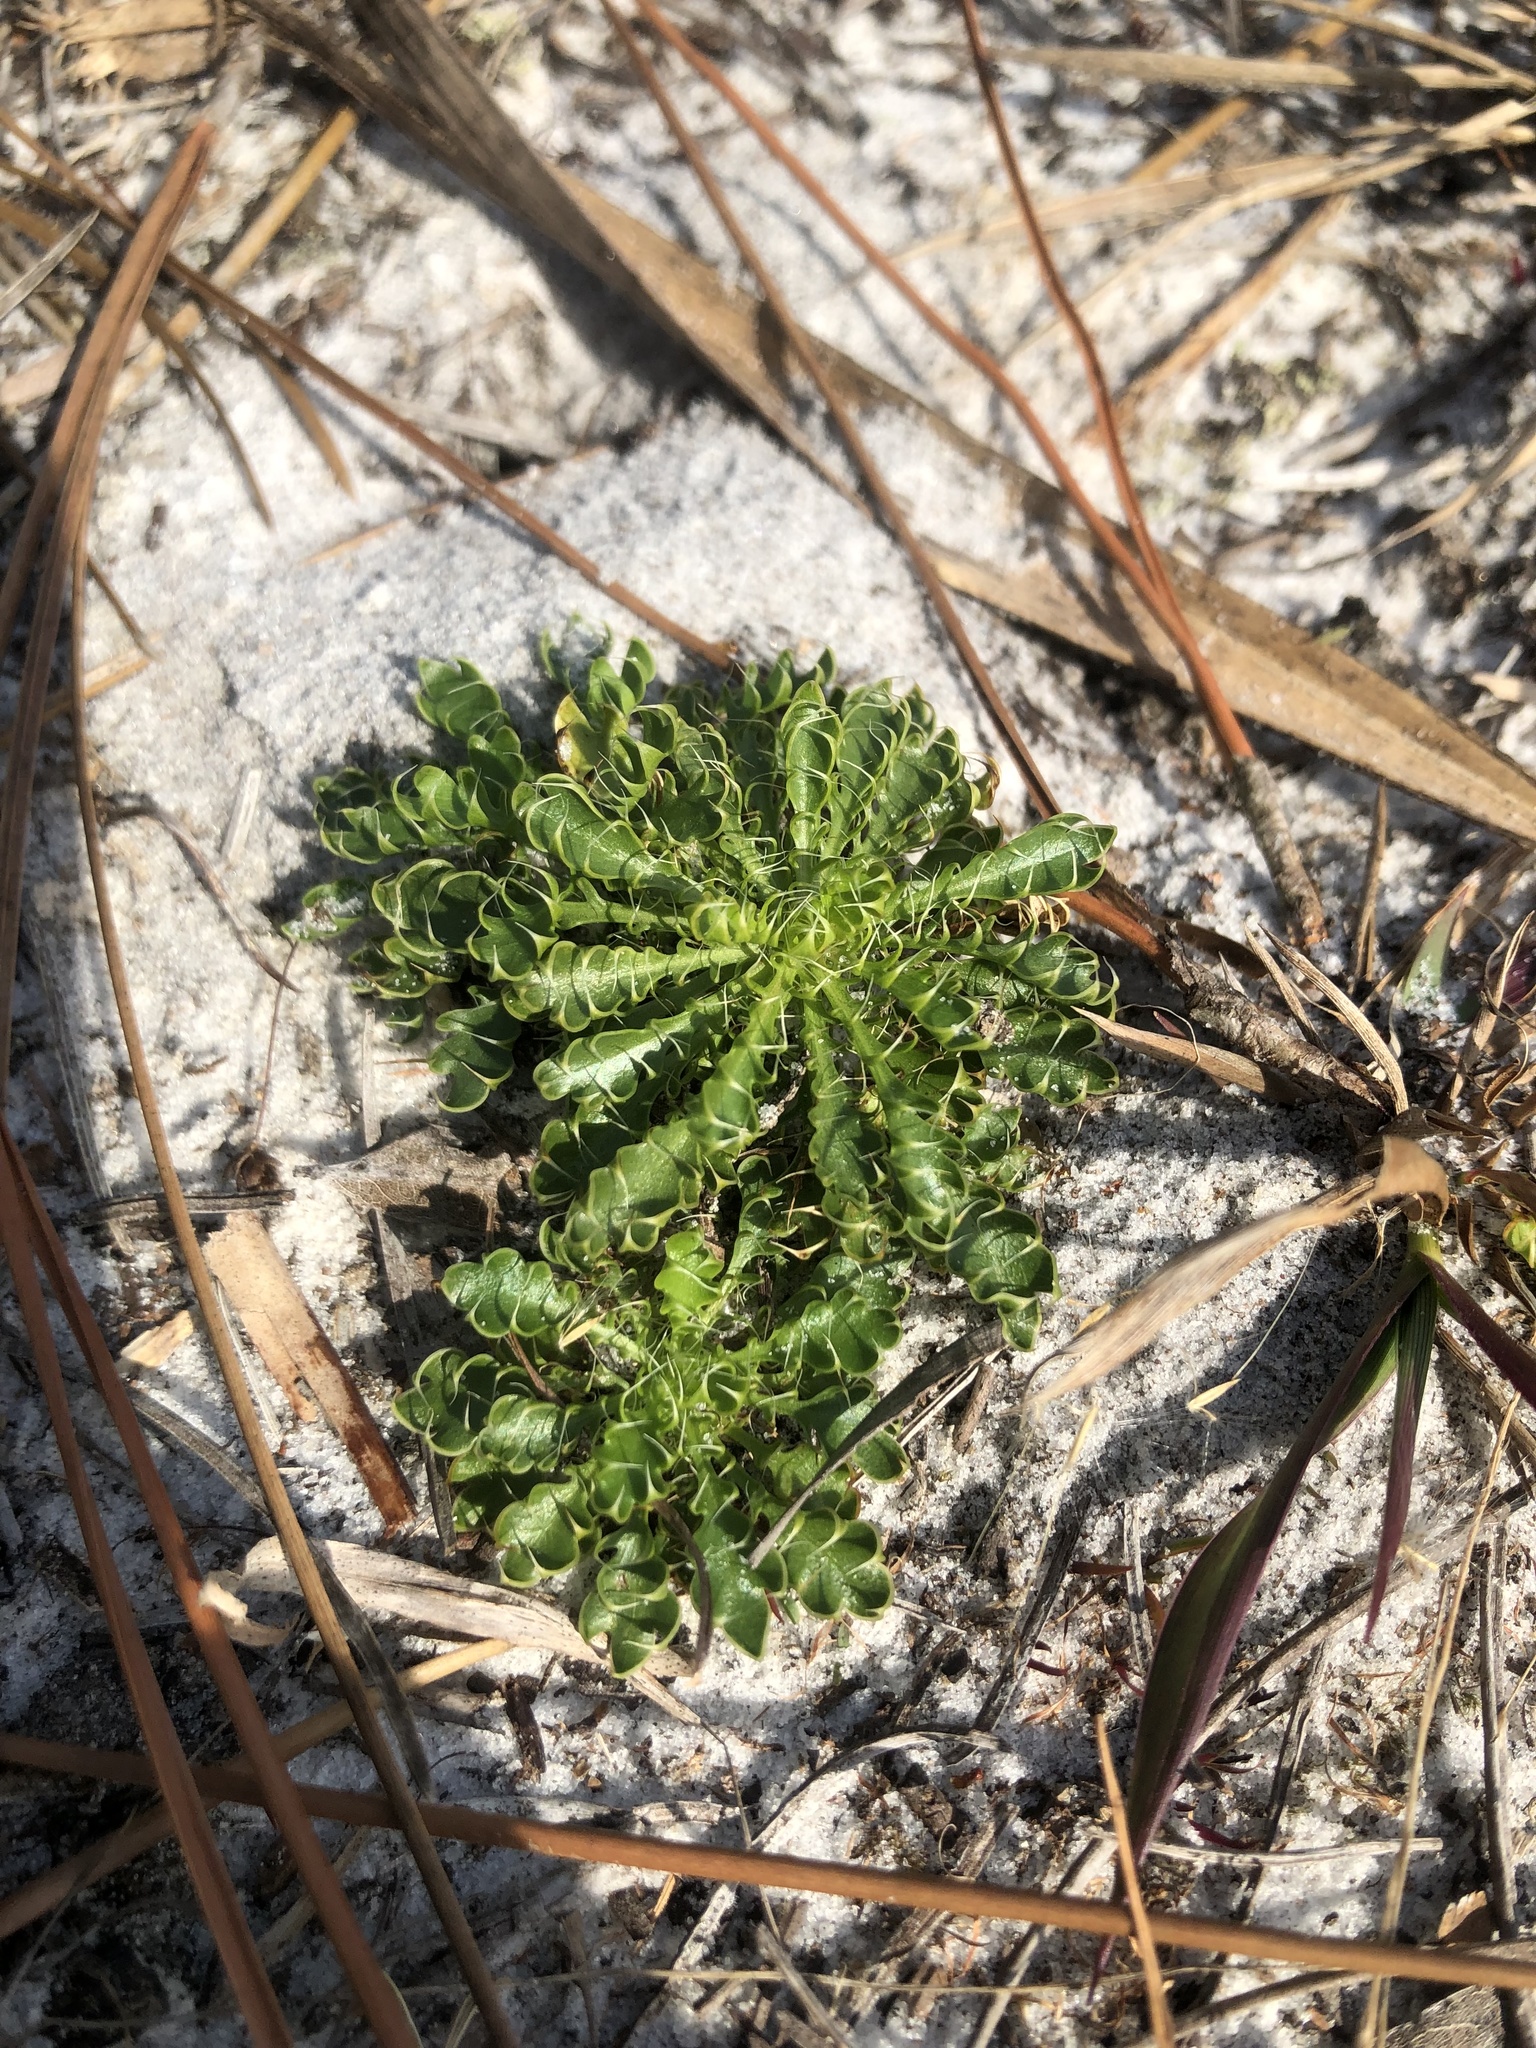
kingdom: Plantae
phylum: Tracheophyta
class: Magnoliopsida
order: Apiales
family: Apiaceae
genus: Eryngium
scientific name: Eryngium aromaticum
